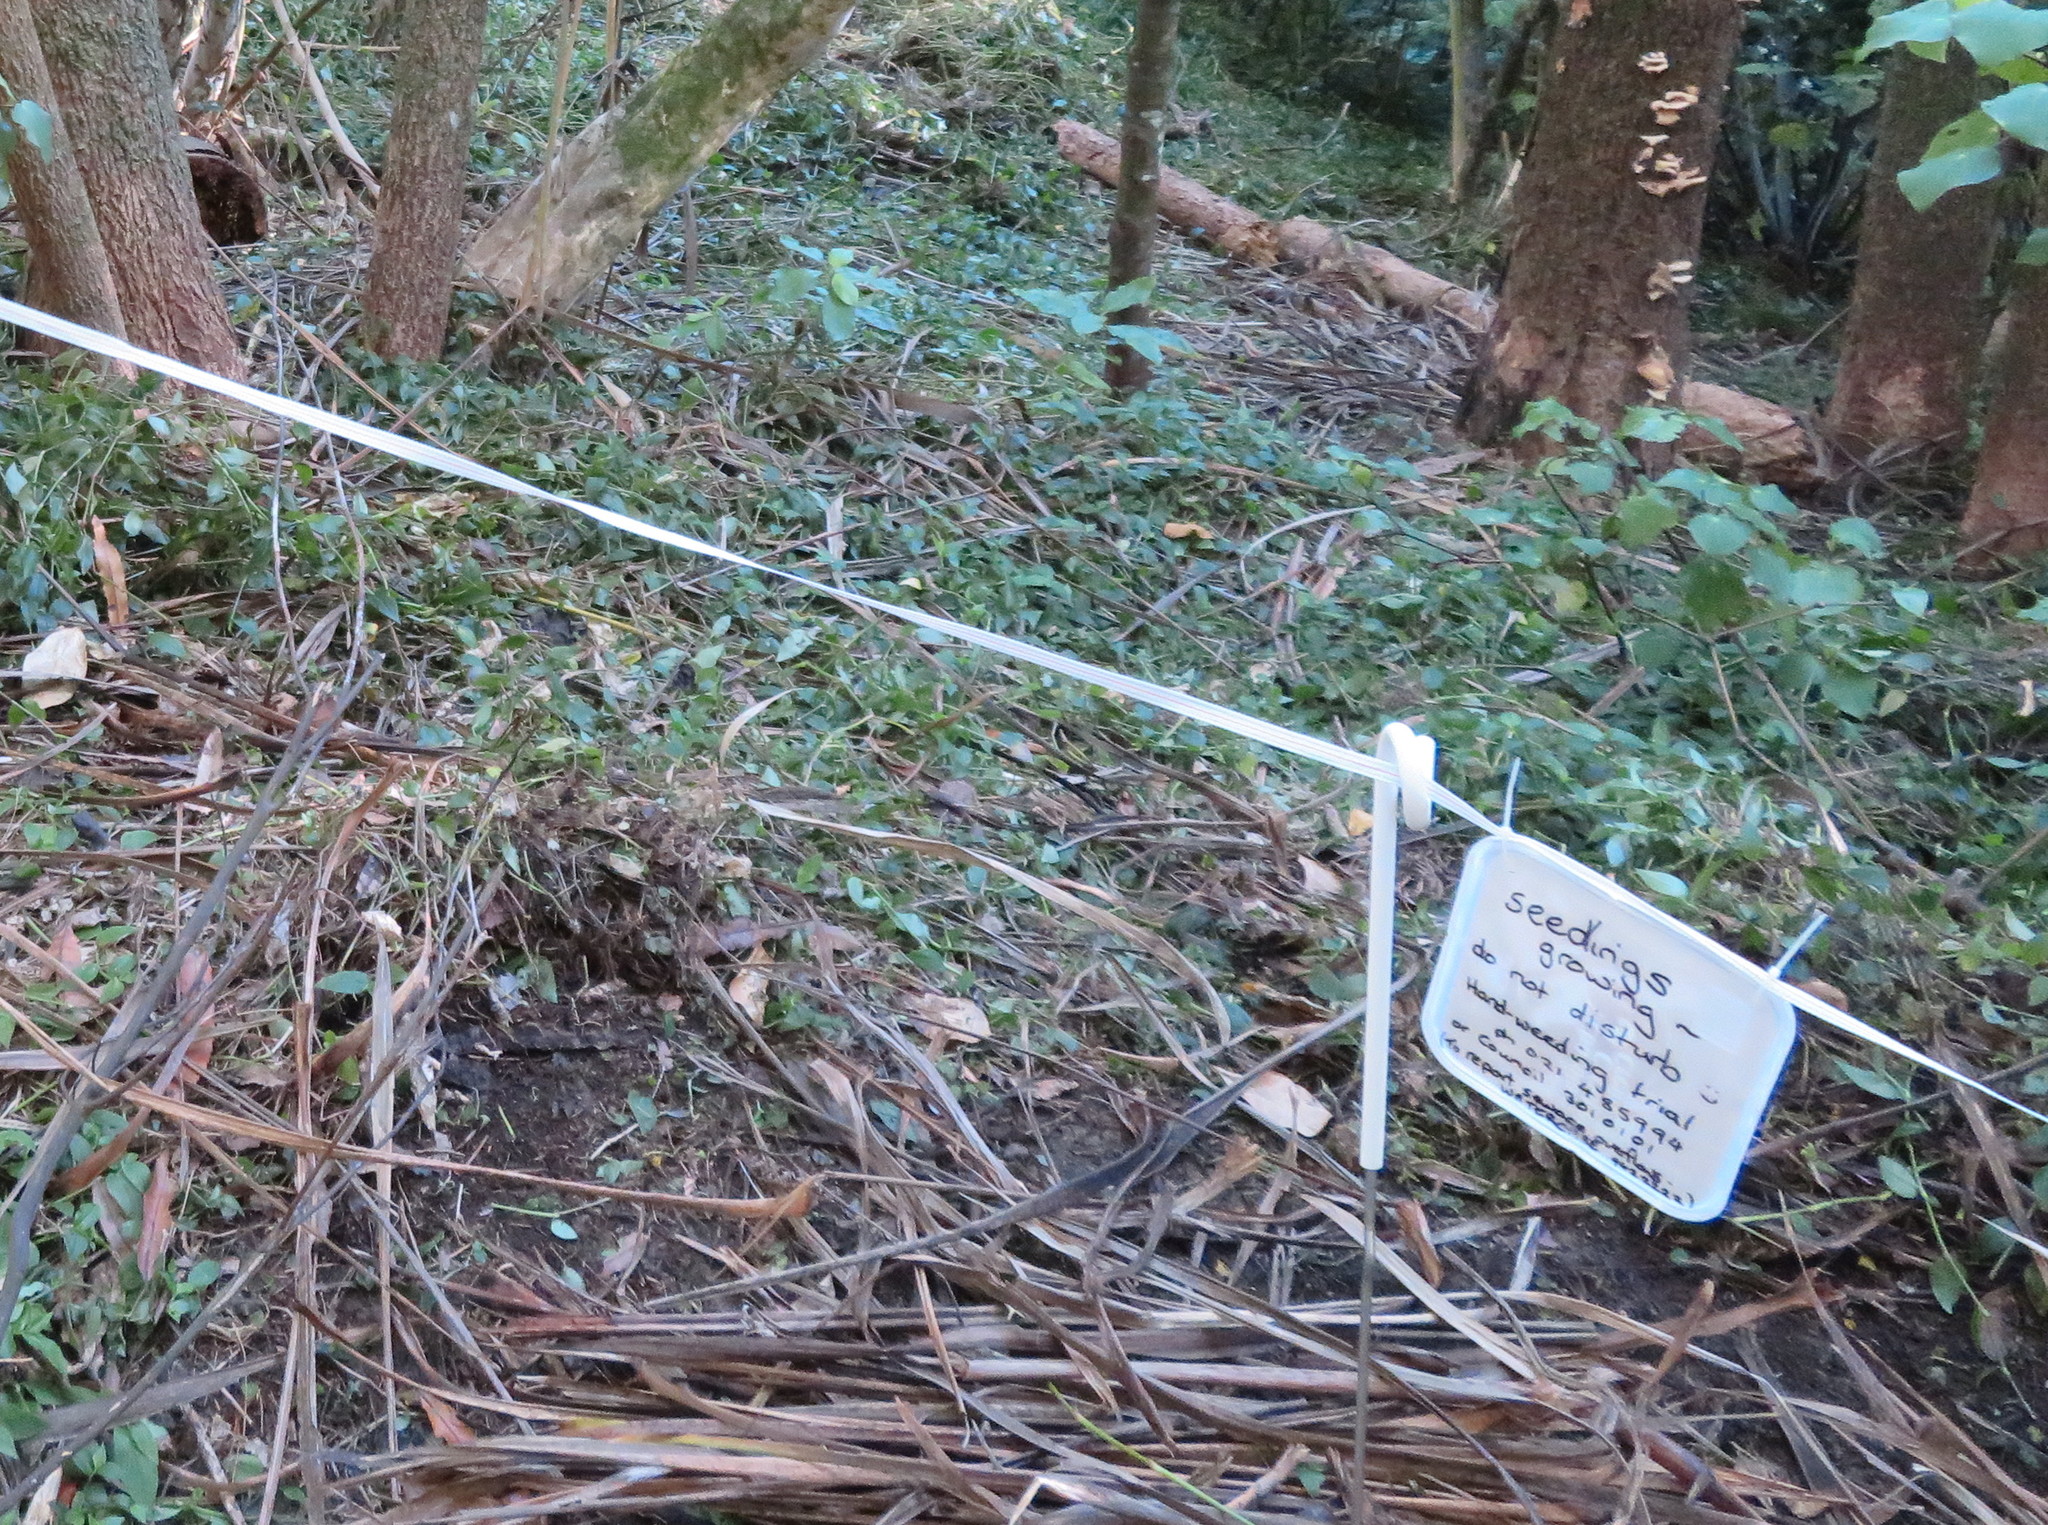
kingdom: Plantae
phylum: Tracheophyta
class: Liliopsida
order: Commelinales
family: Commelinaceae
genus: Tradescantia
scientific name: Tradescantia fluminensis
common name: Wandering-jew
